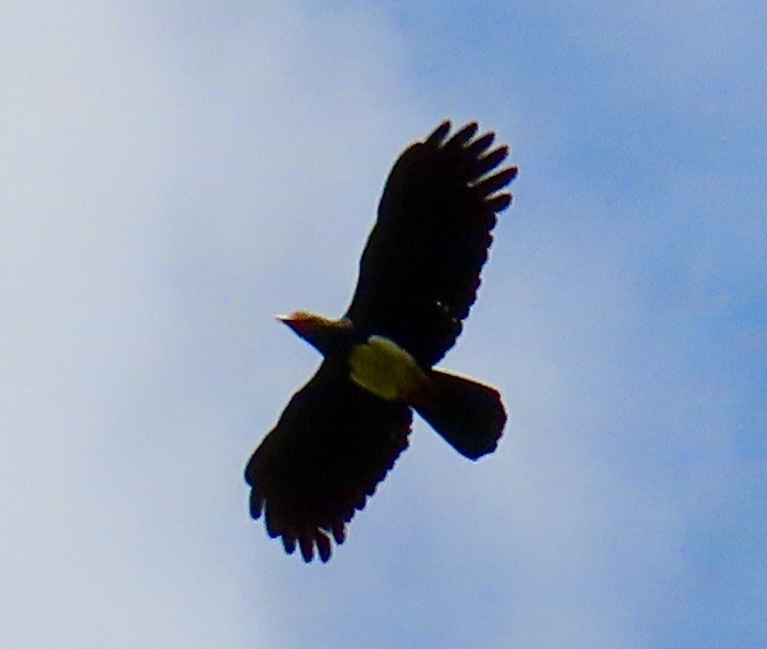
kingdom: Animalia
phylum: Chordata
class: Aves
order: Falconiformes
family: Falconidae
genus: Ibycter
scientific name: Ibycter americanus
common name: Red-throated caracara
